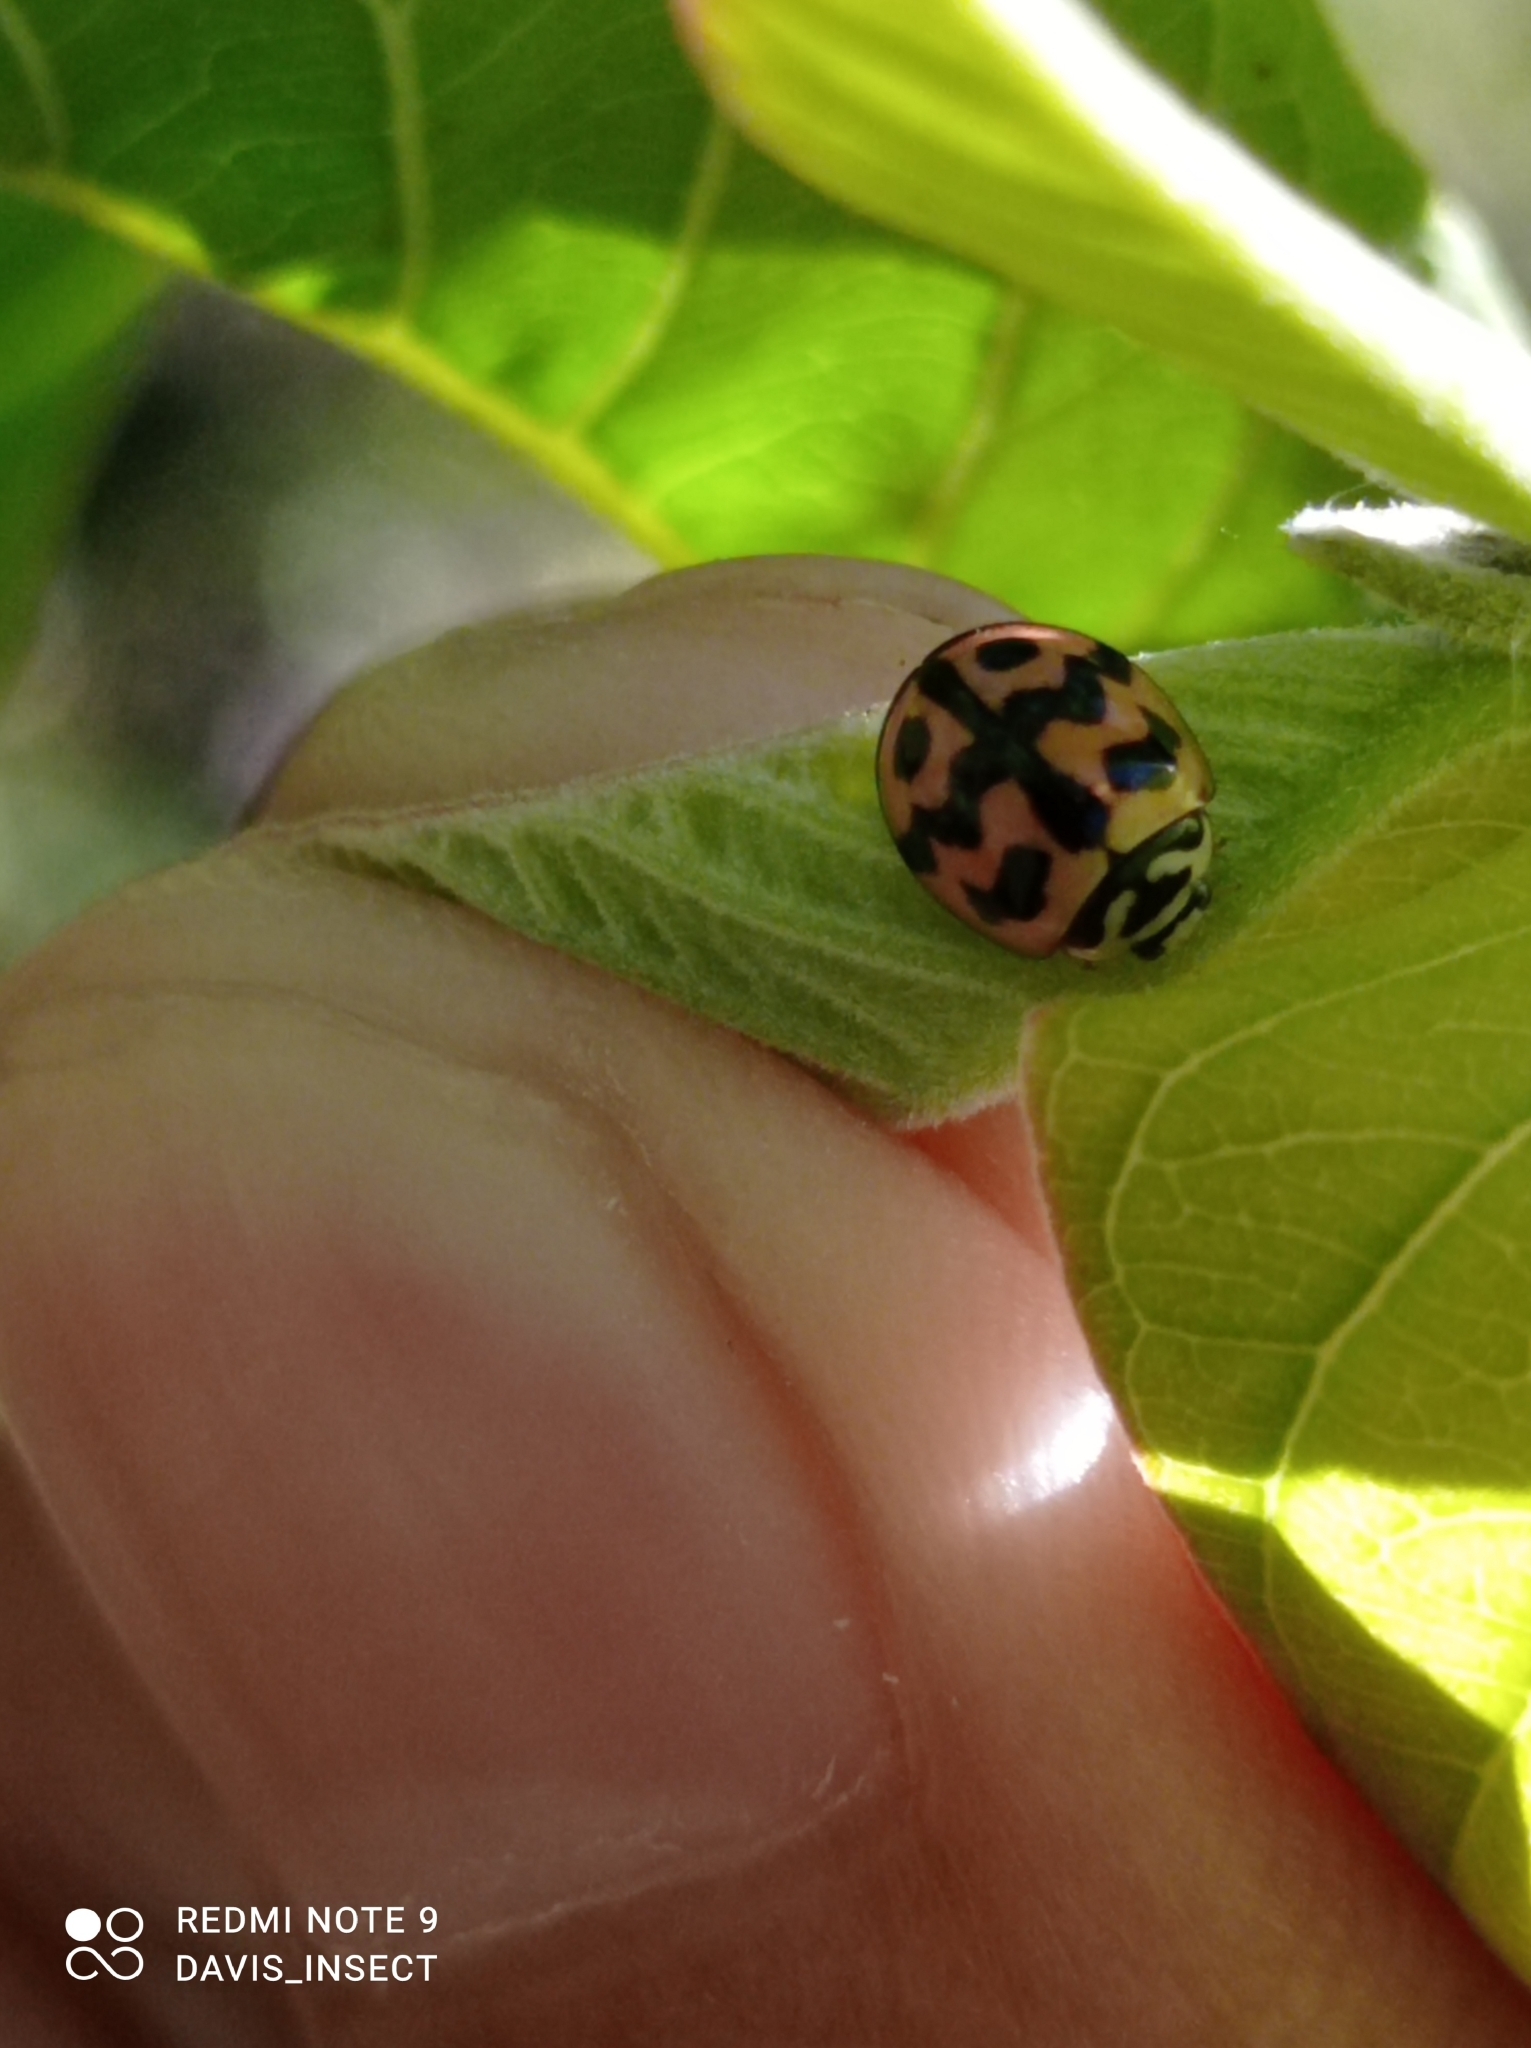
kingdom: Animalia
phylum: Arthropoda
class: Insecta
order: Coleoptera
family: Coccinellidae
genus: Cheilomenes
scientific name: Cheilomenes sexmaculata
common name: Ladybird beetle
